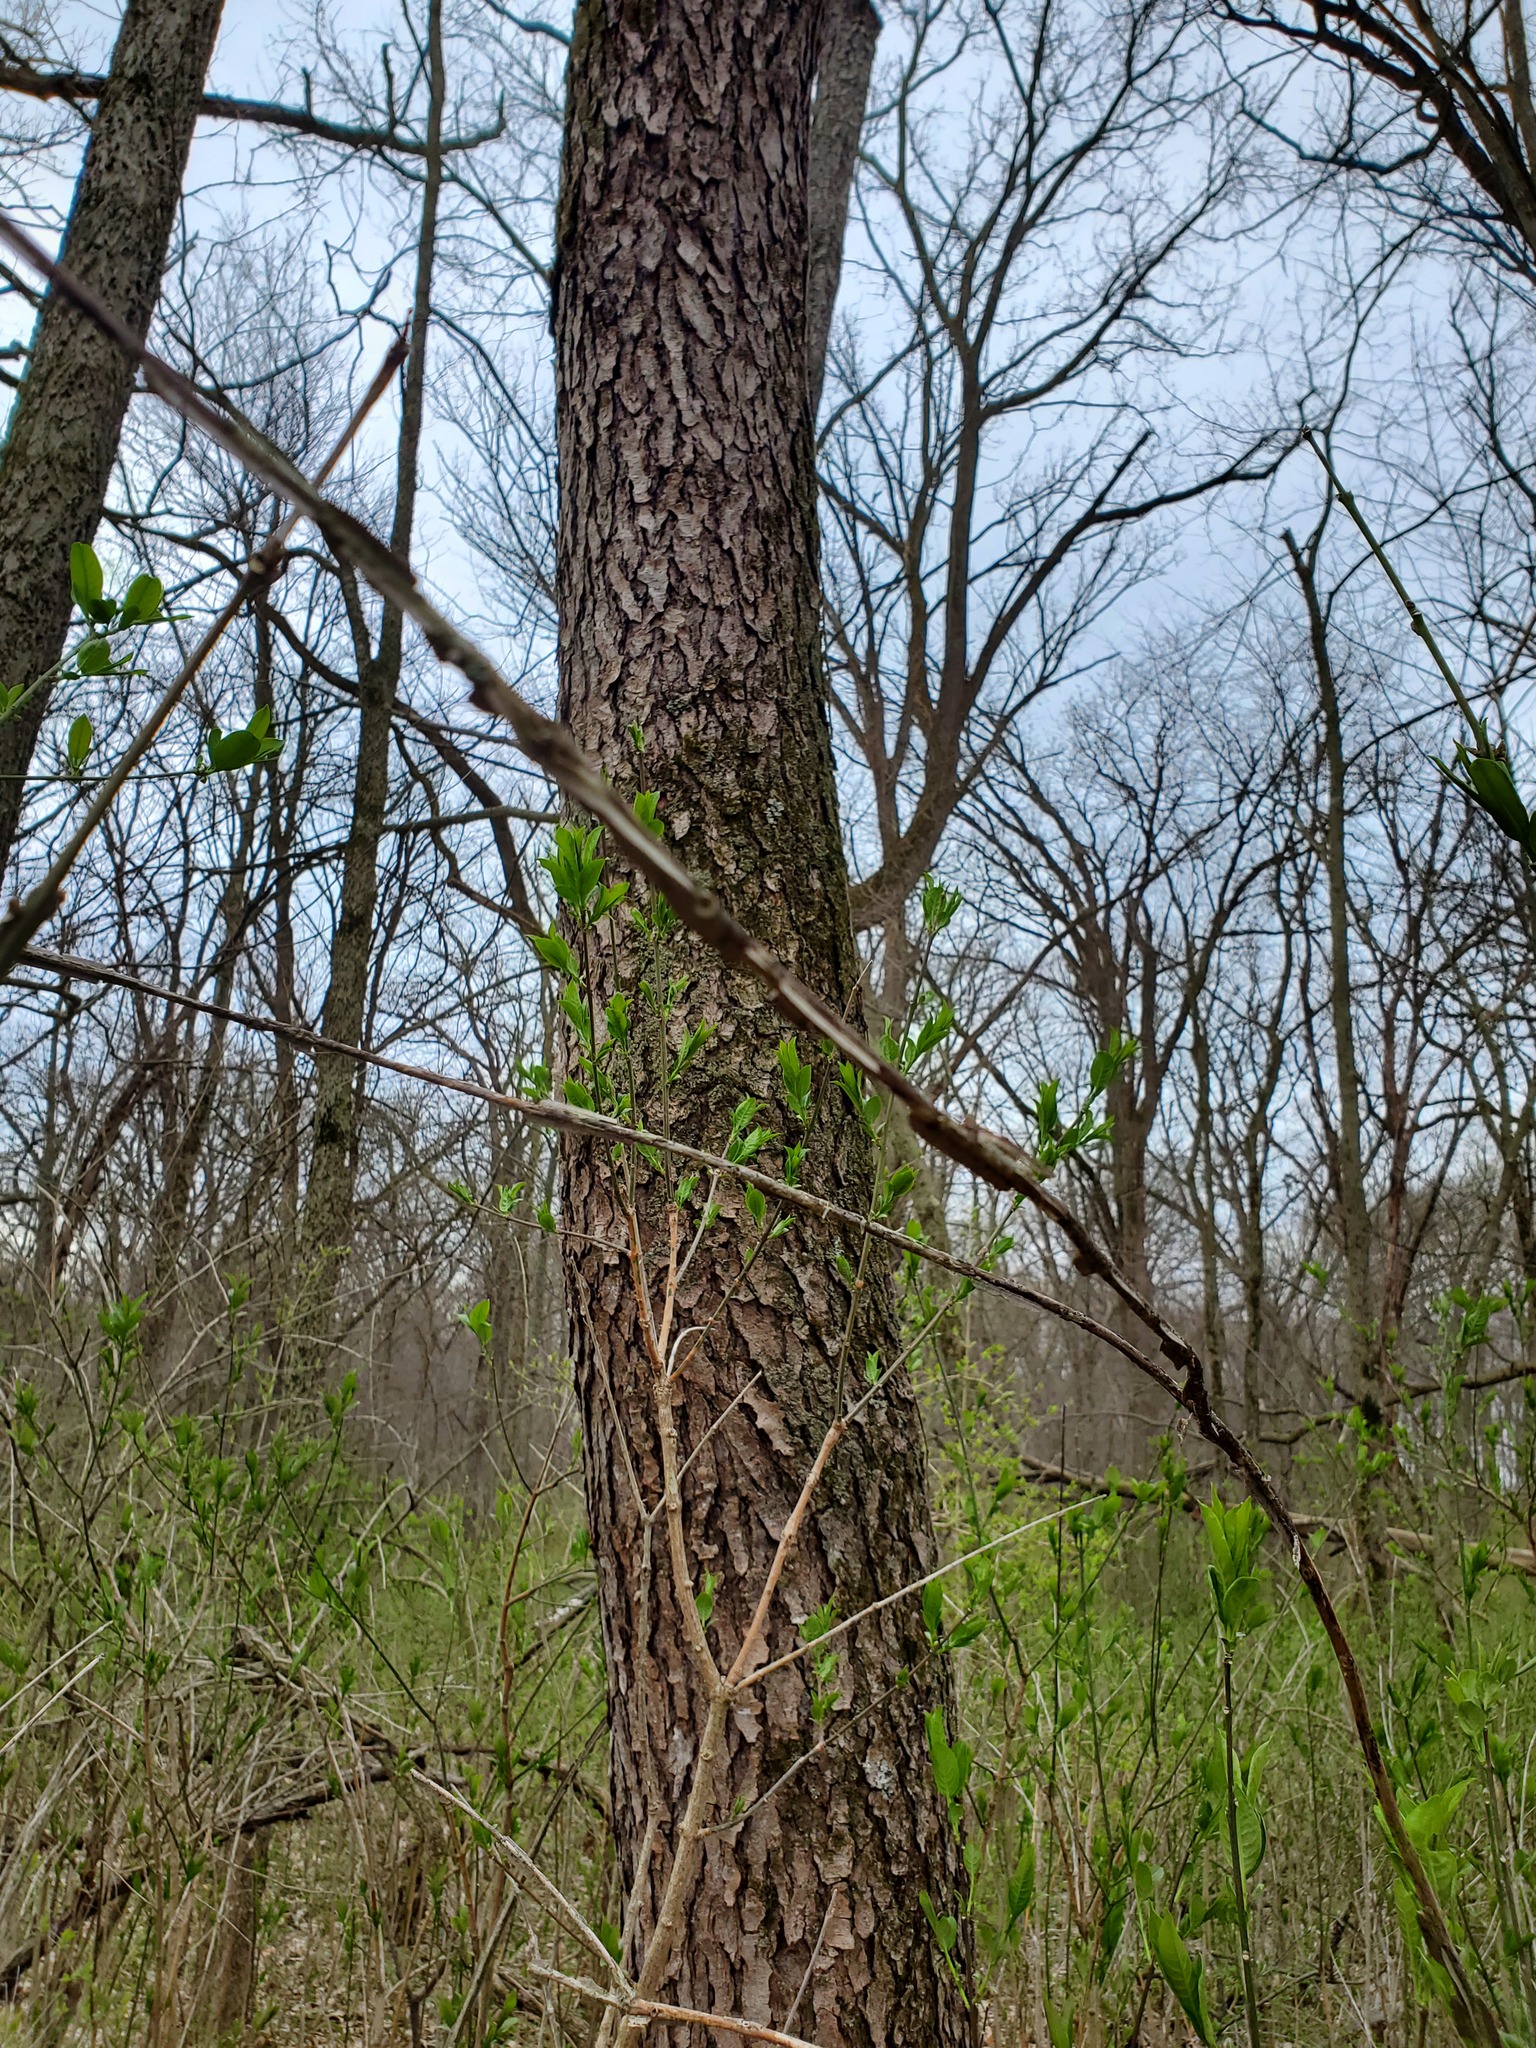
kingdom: Plantae
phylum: Tracheophyta
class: Magnoliopsida
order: Rosales
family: Rosaceae
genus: Prunus
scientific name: Prunus serotina
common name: Black cherry
